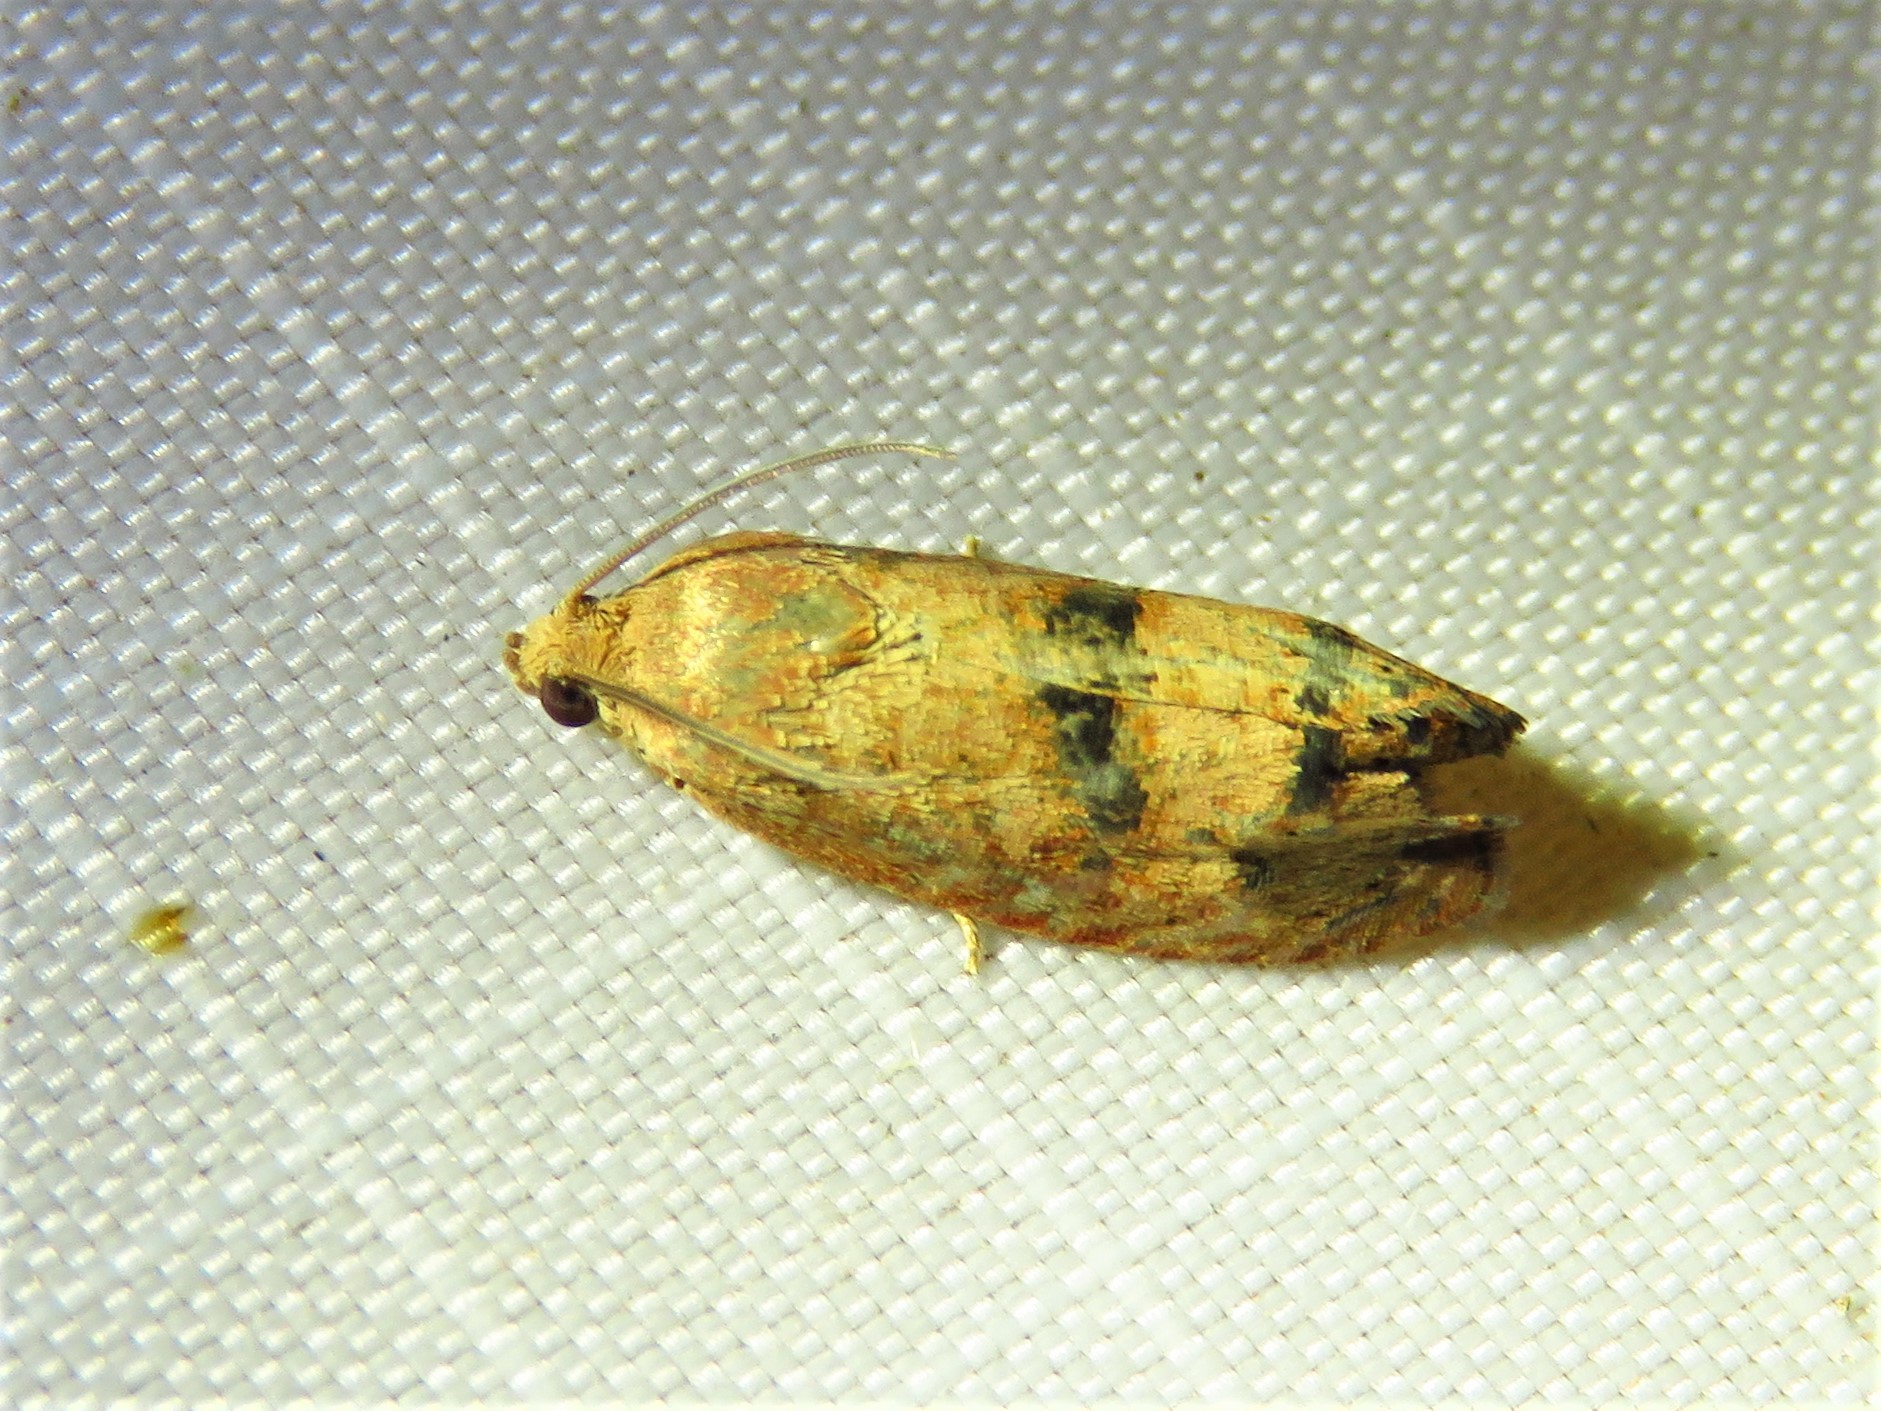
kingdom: Animalia
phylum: Arthropoda
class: Insecta
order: Lepidoptera
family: Tortricidae
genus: Cydia
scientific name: Cydia latiferreana
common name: Filbertworm moth
